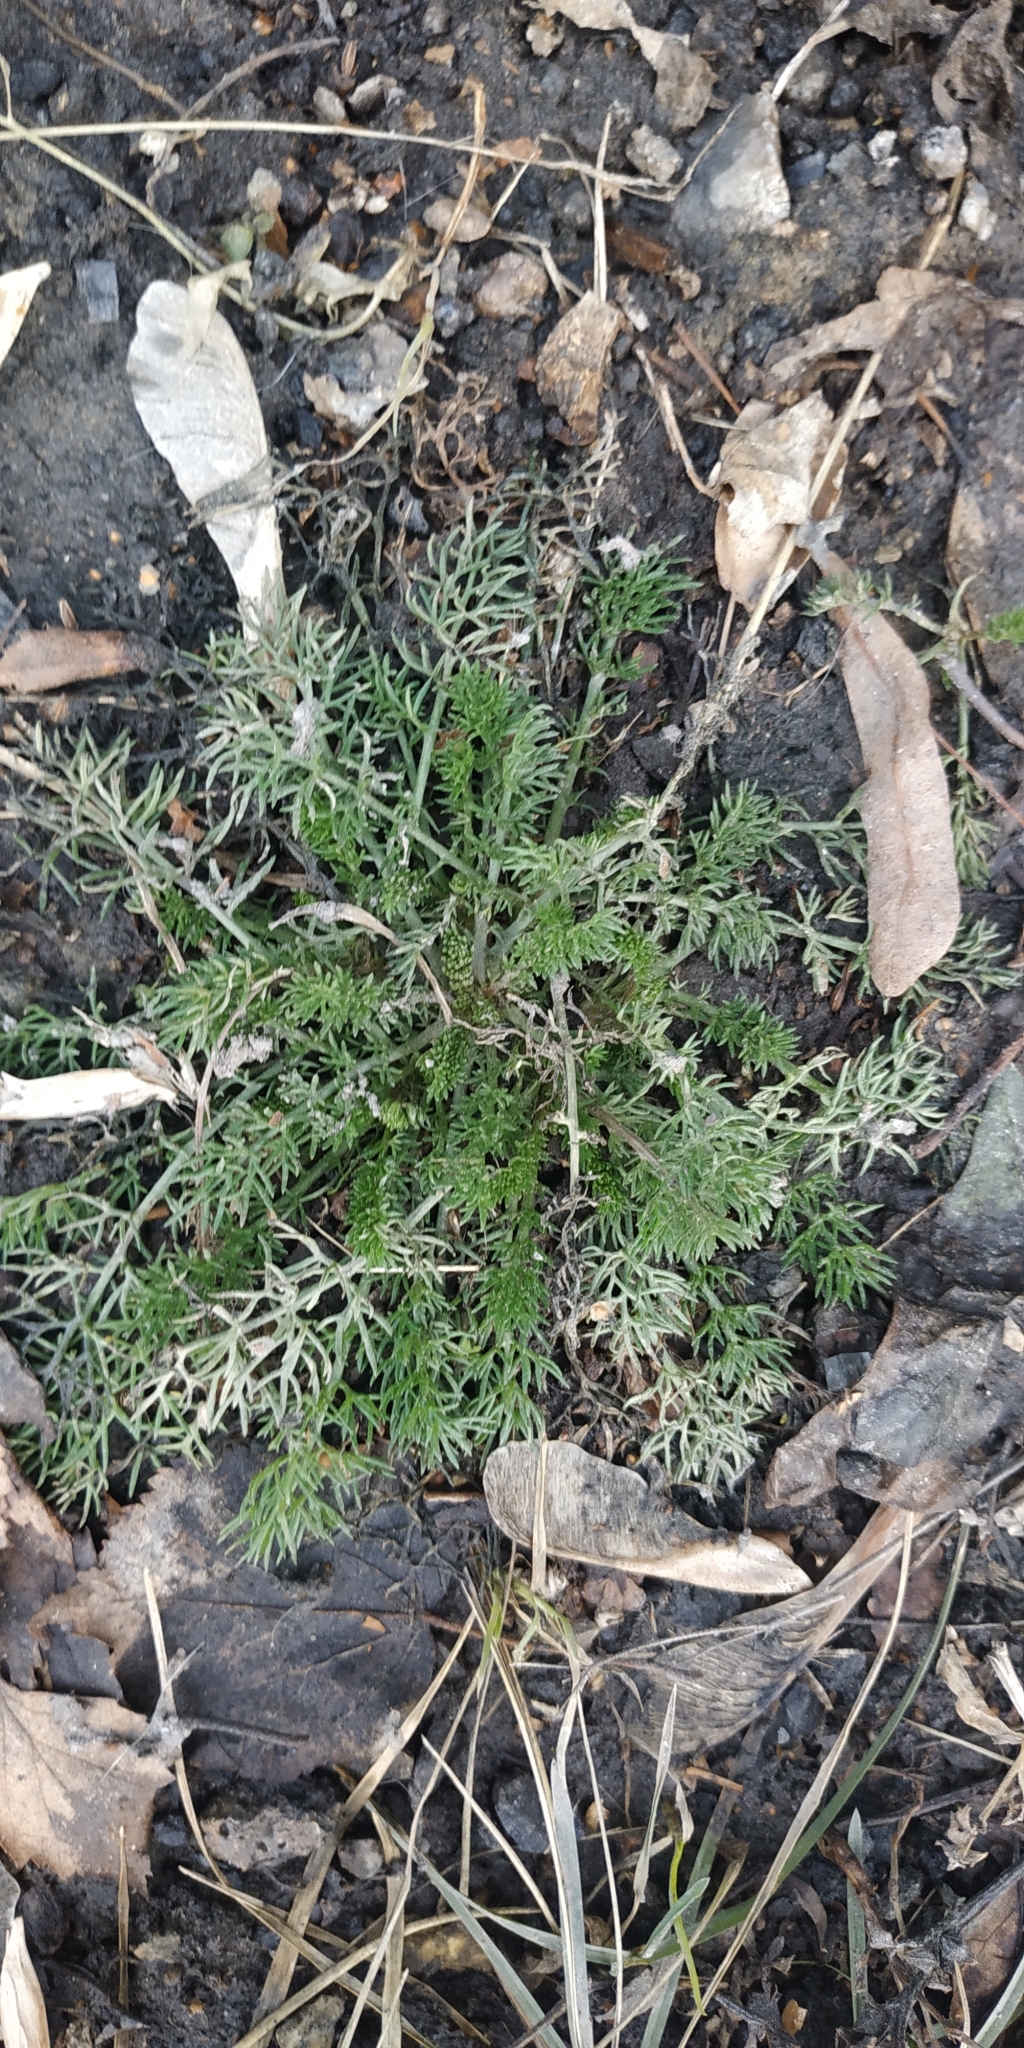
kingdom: Plantae
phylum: Tracheophyta
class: Magnoliopsida
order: Asterales
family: Asteraceae
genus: Tripleurospermum
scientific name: Tripleurospermum inodorum
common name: Scentless mayweed
